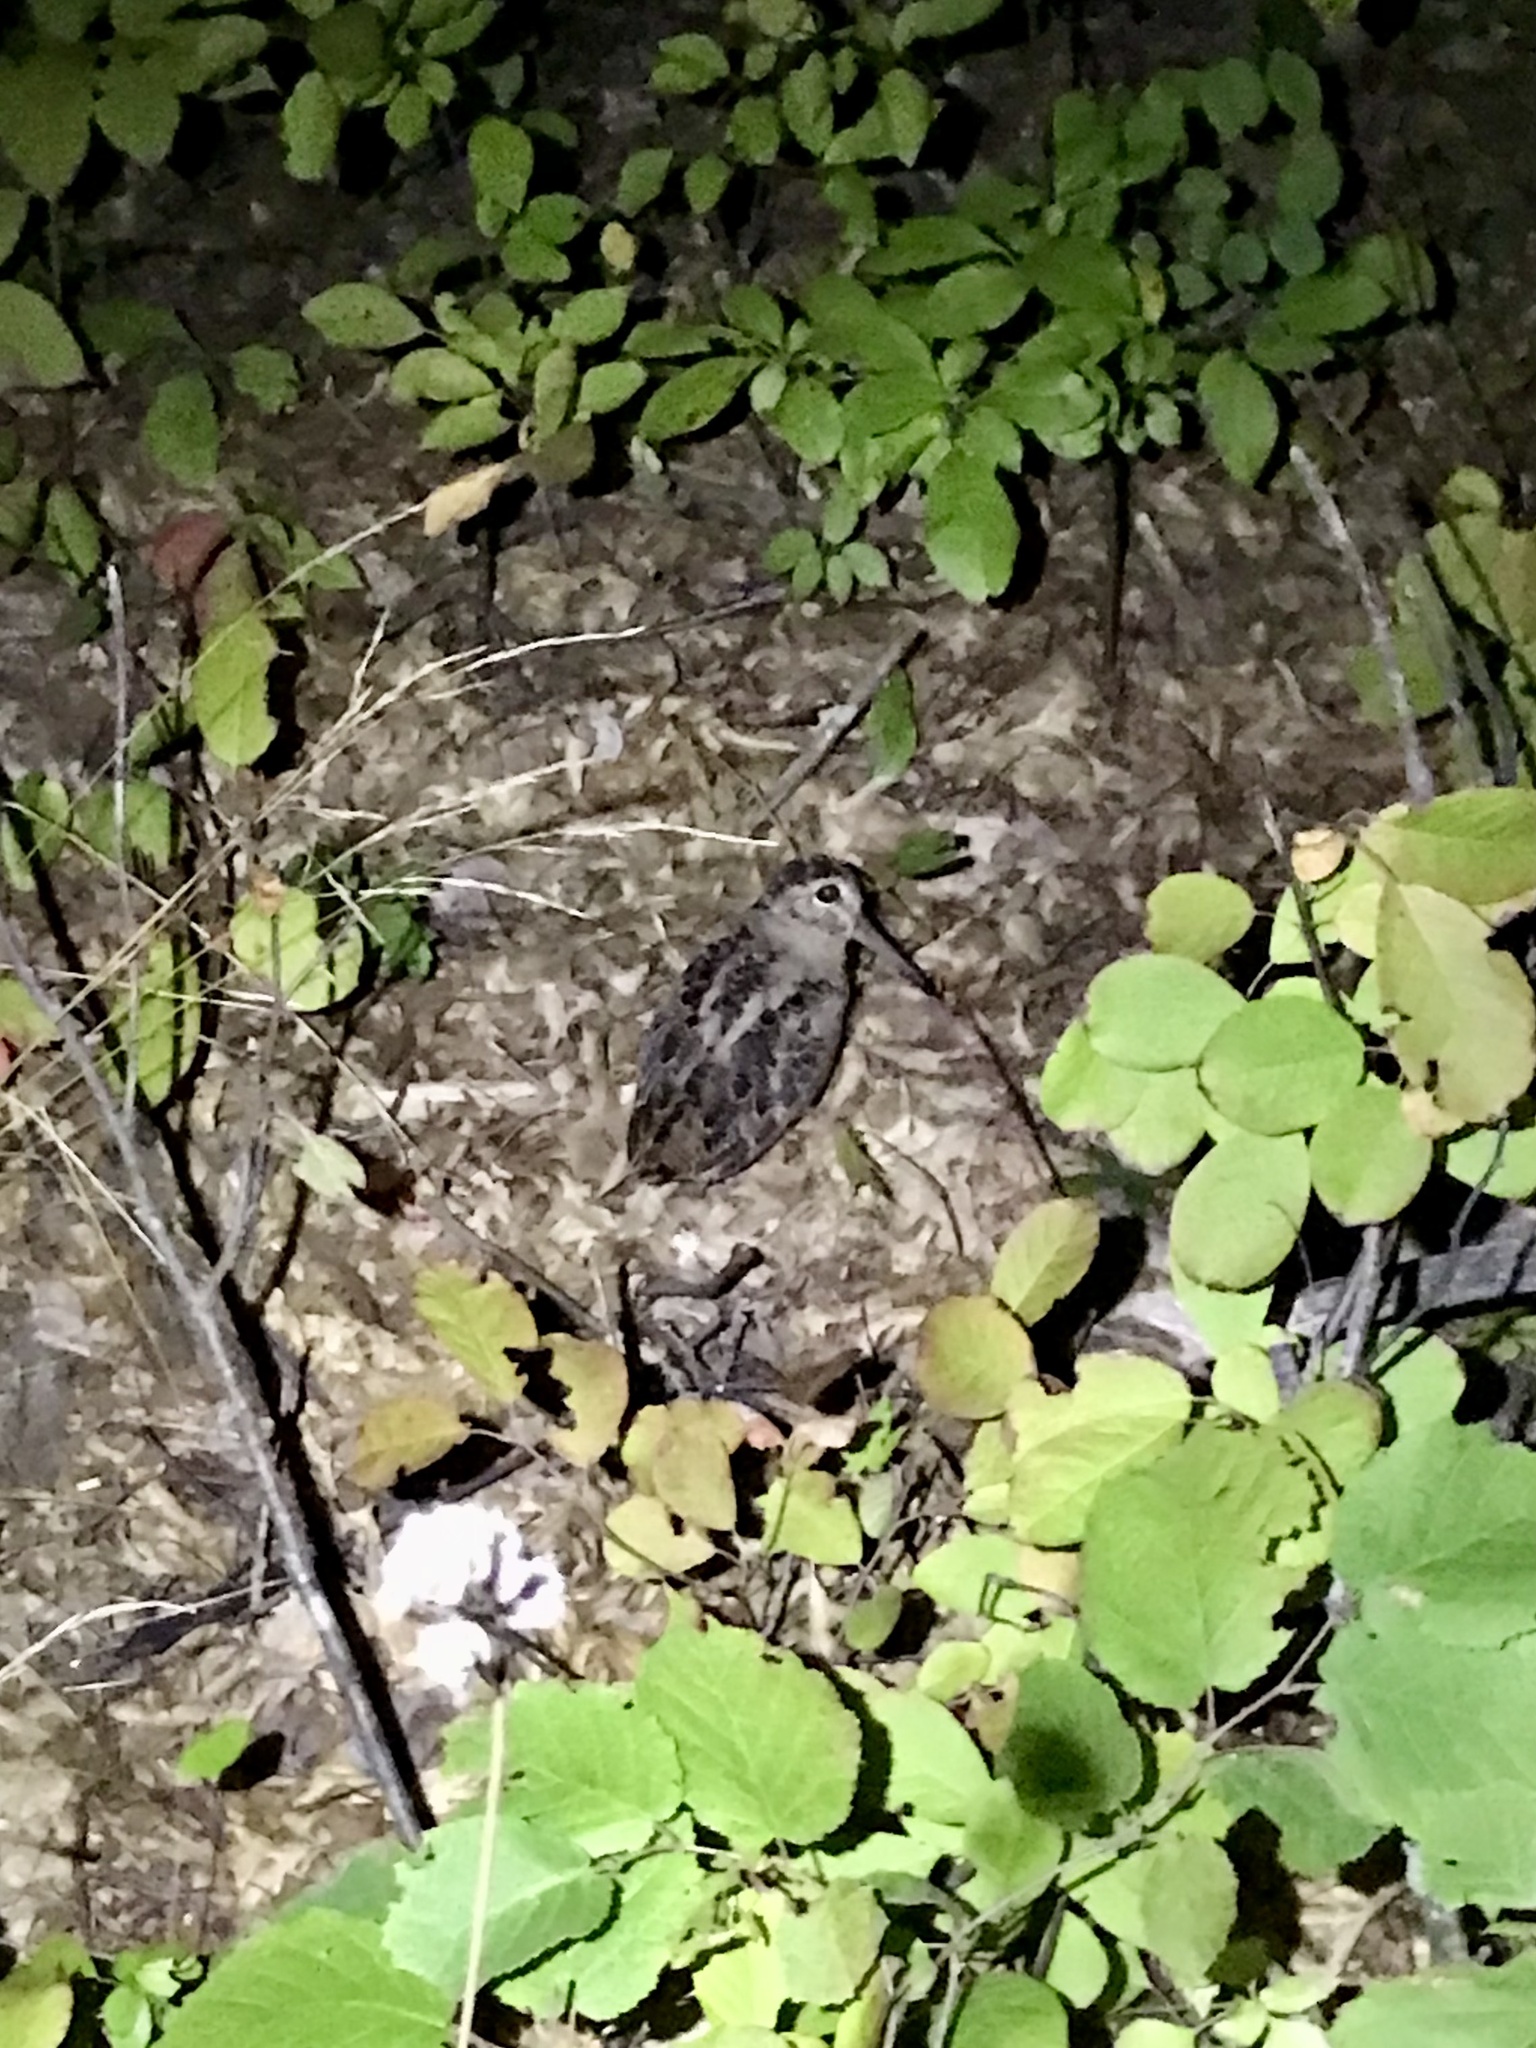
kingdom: Animalia
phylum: Chordata
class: Aves
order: Charadriiformes
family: Scolopacidae
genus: Scolopax
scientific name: Scolopax minor
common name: American woodcock
